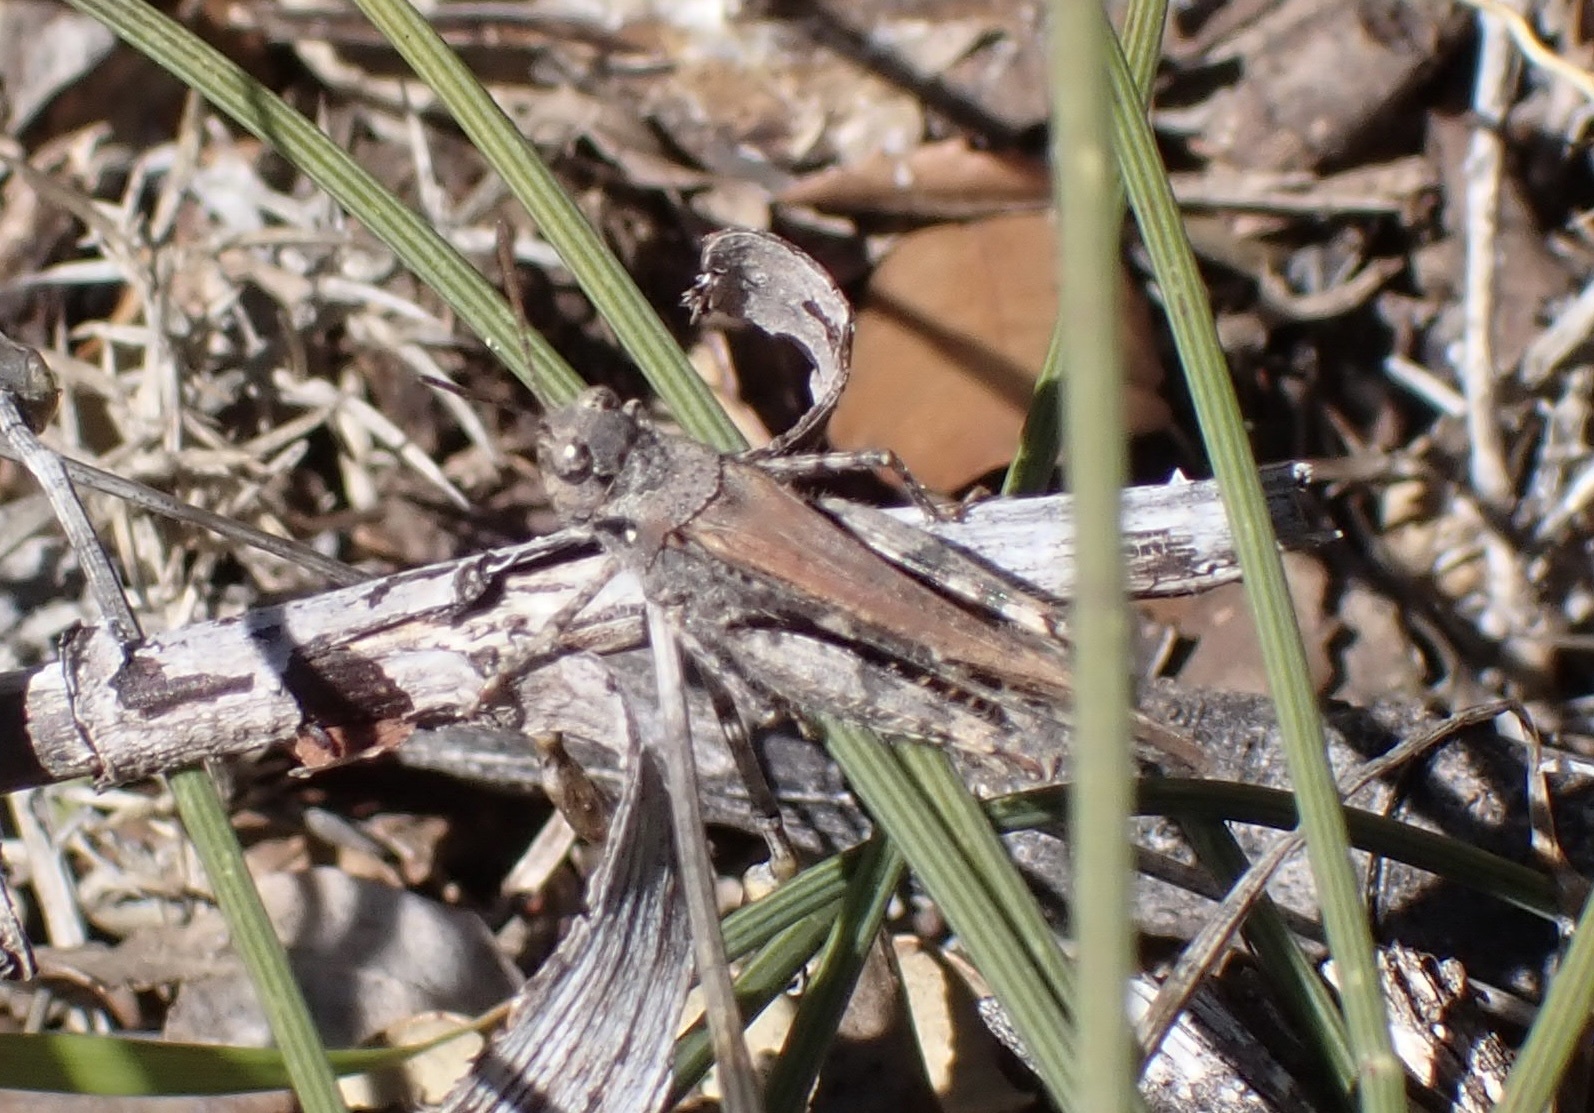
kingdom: Animalia
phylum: Arthropoda
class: Insecta
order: Orthoptera
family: Acrididae
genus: Acrotylus
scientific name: Acrotylus insubricus
